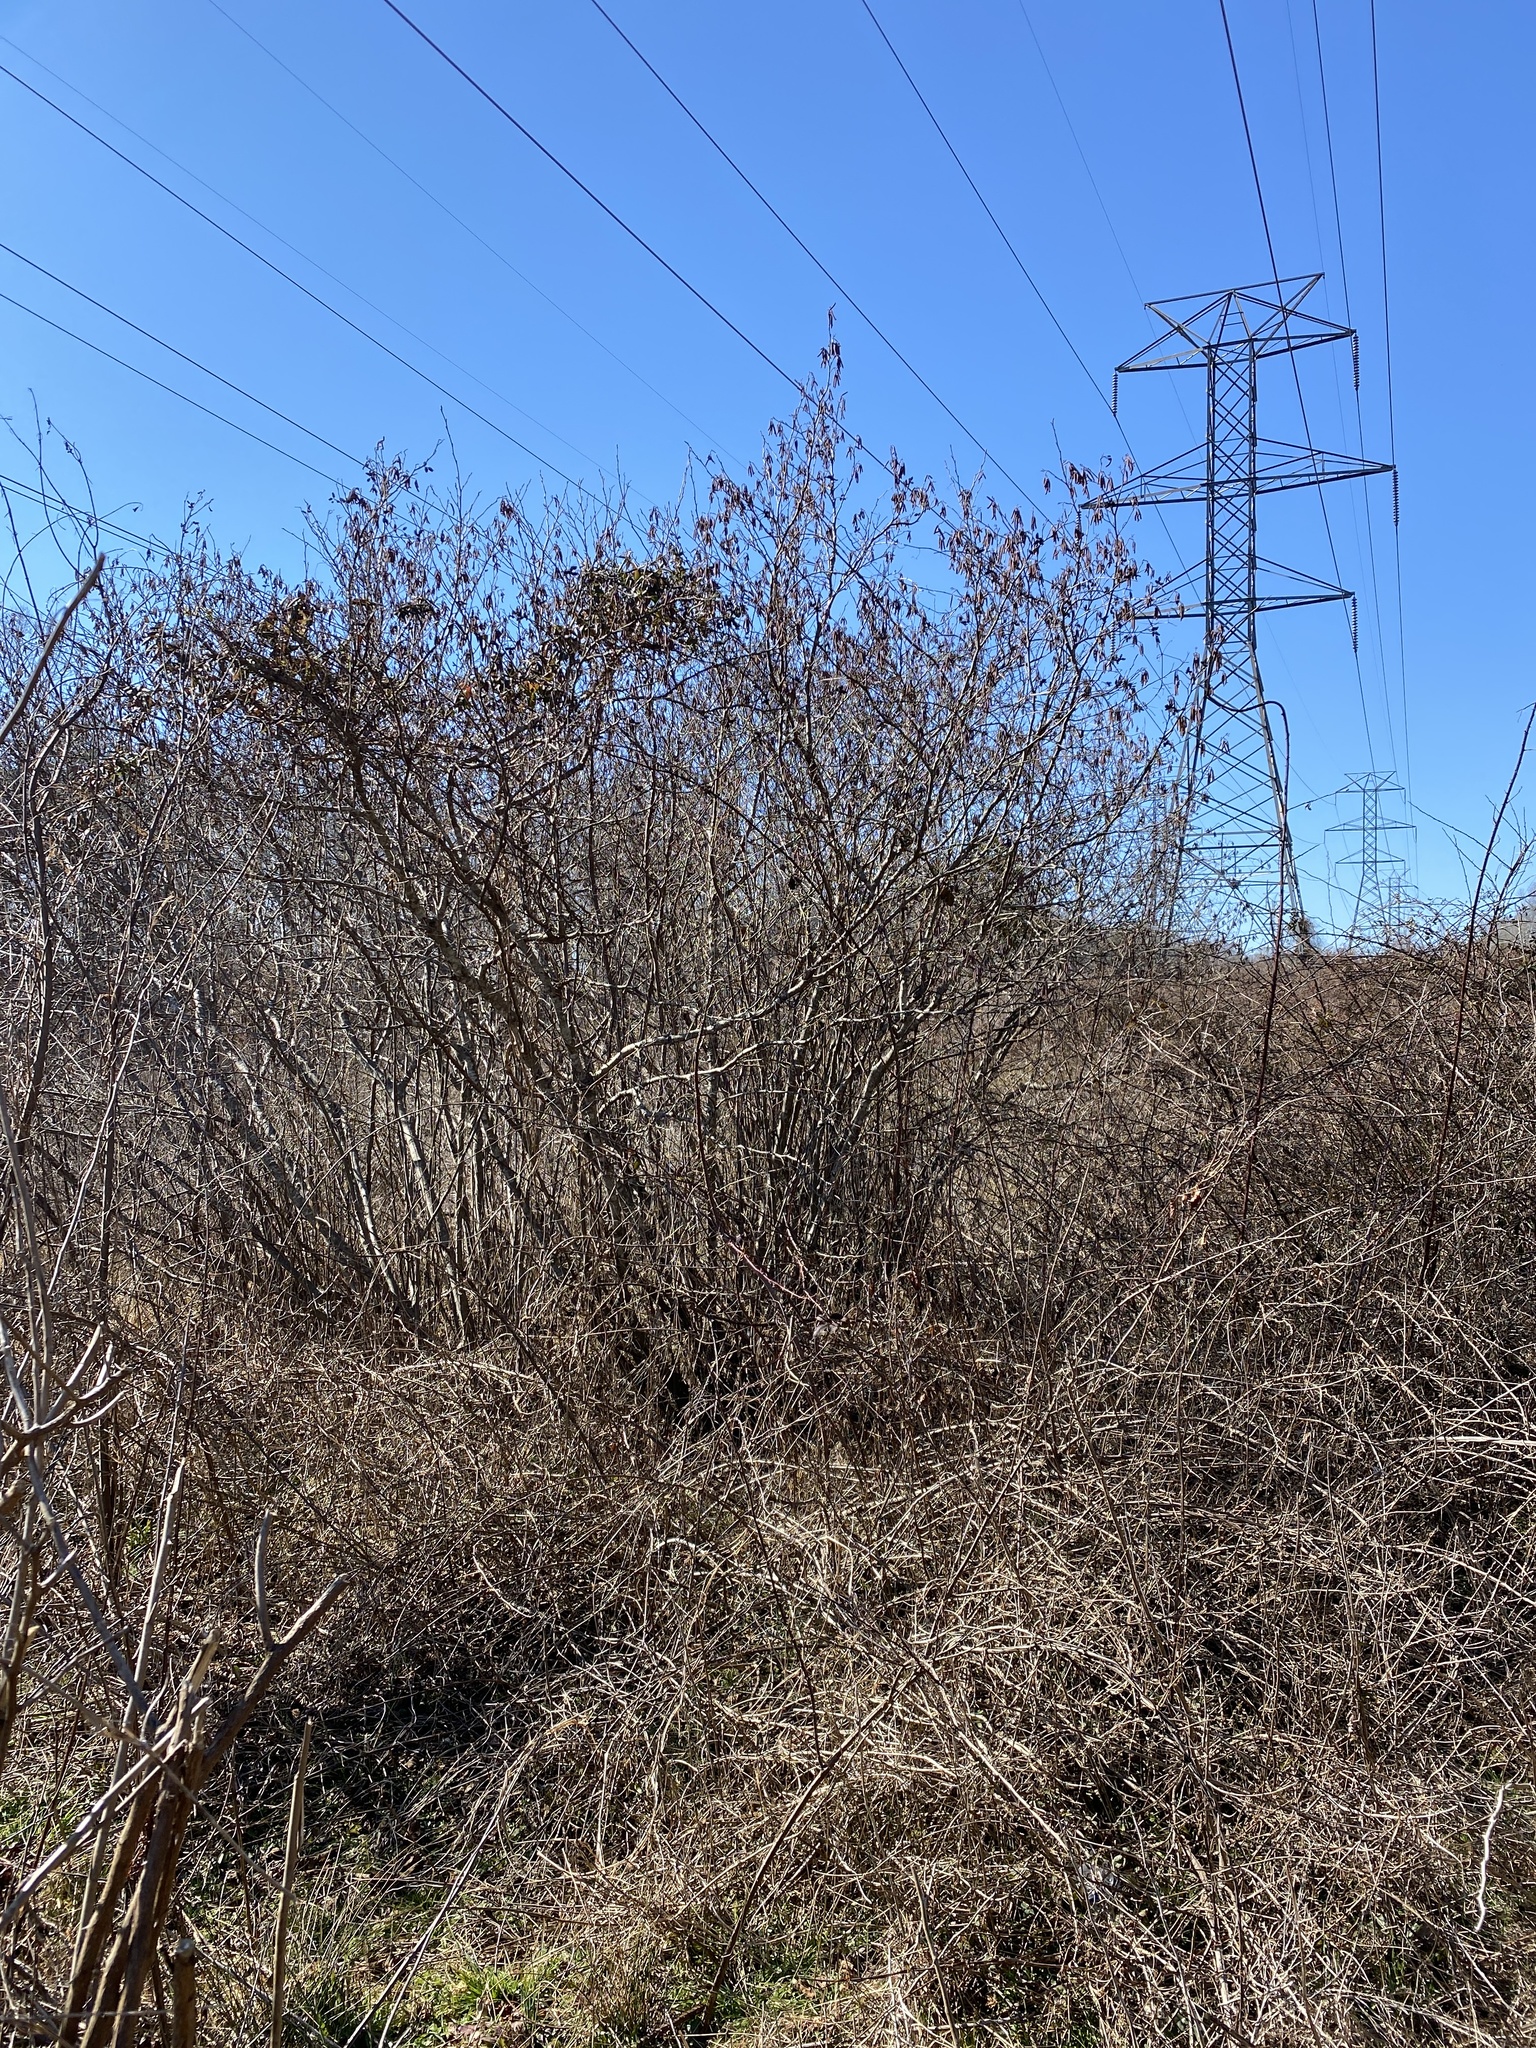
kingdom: Plantae
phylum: Tracheophyta
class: Magnoliopsida
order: Fagales
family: Betulaceae
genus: Alnus
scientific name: Alnus serrulata
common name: Hazel alder
